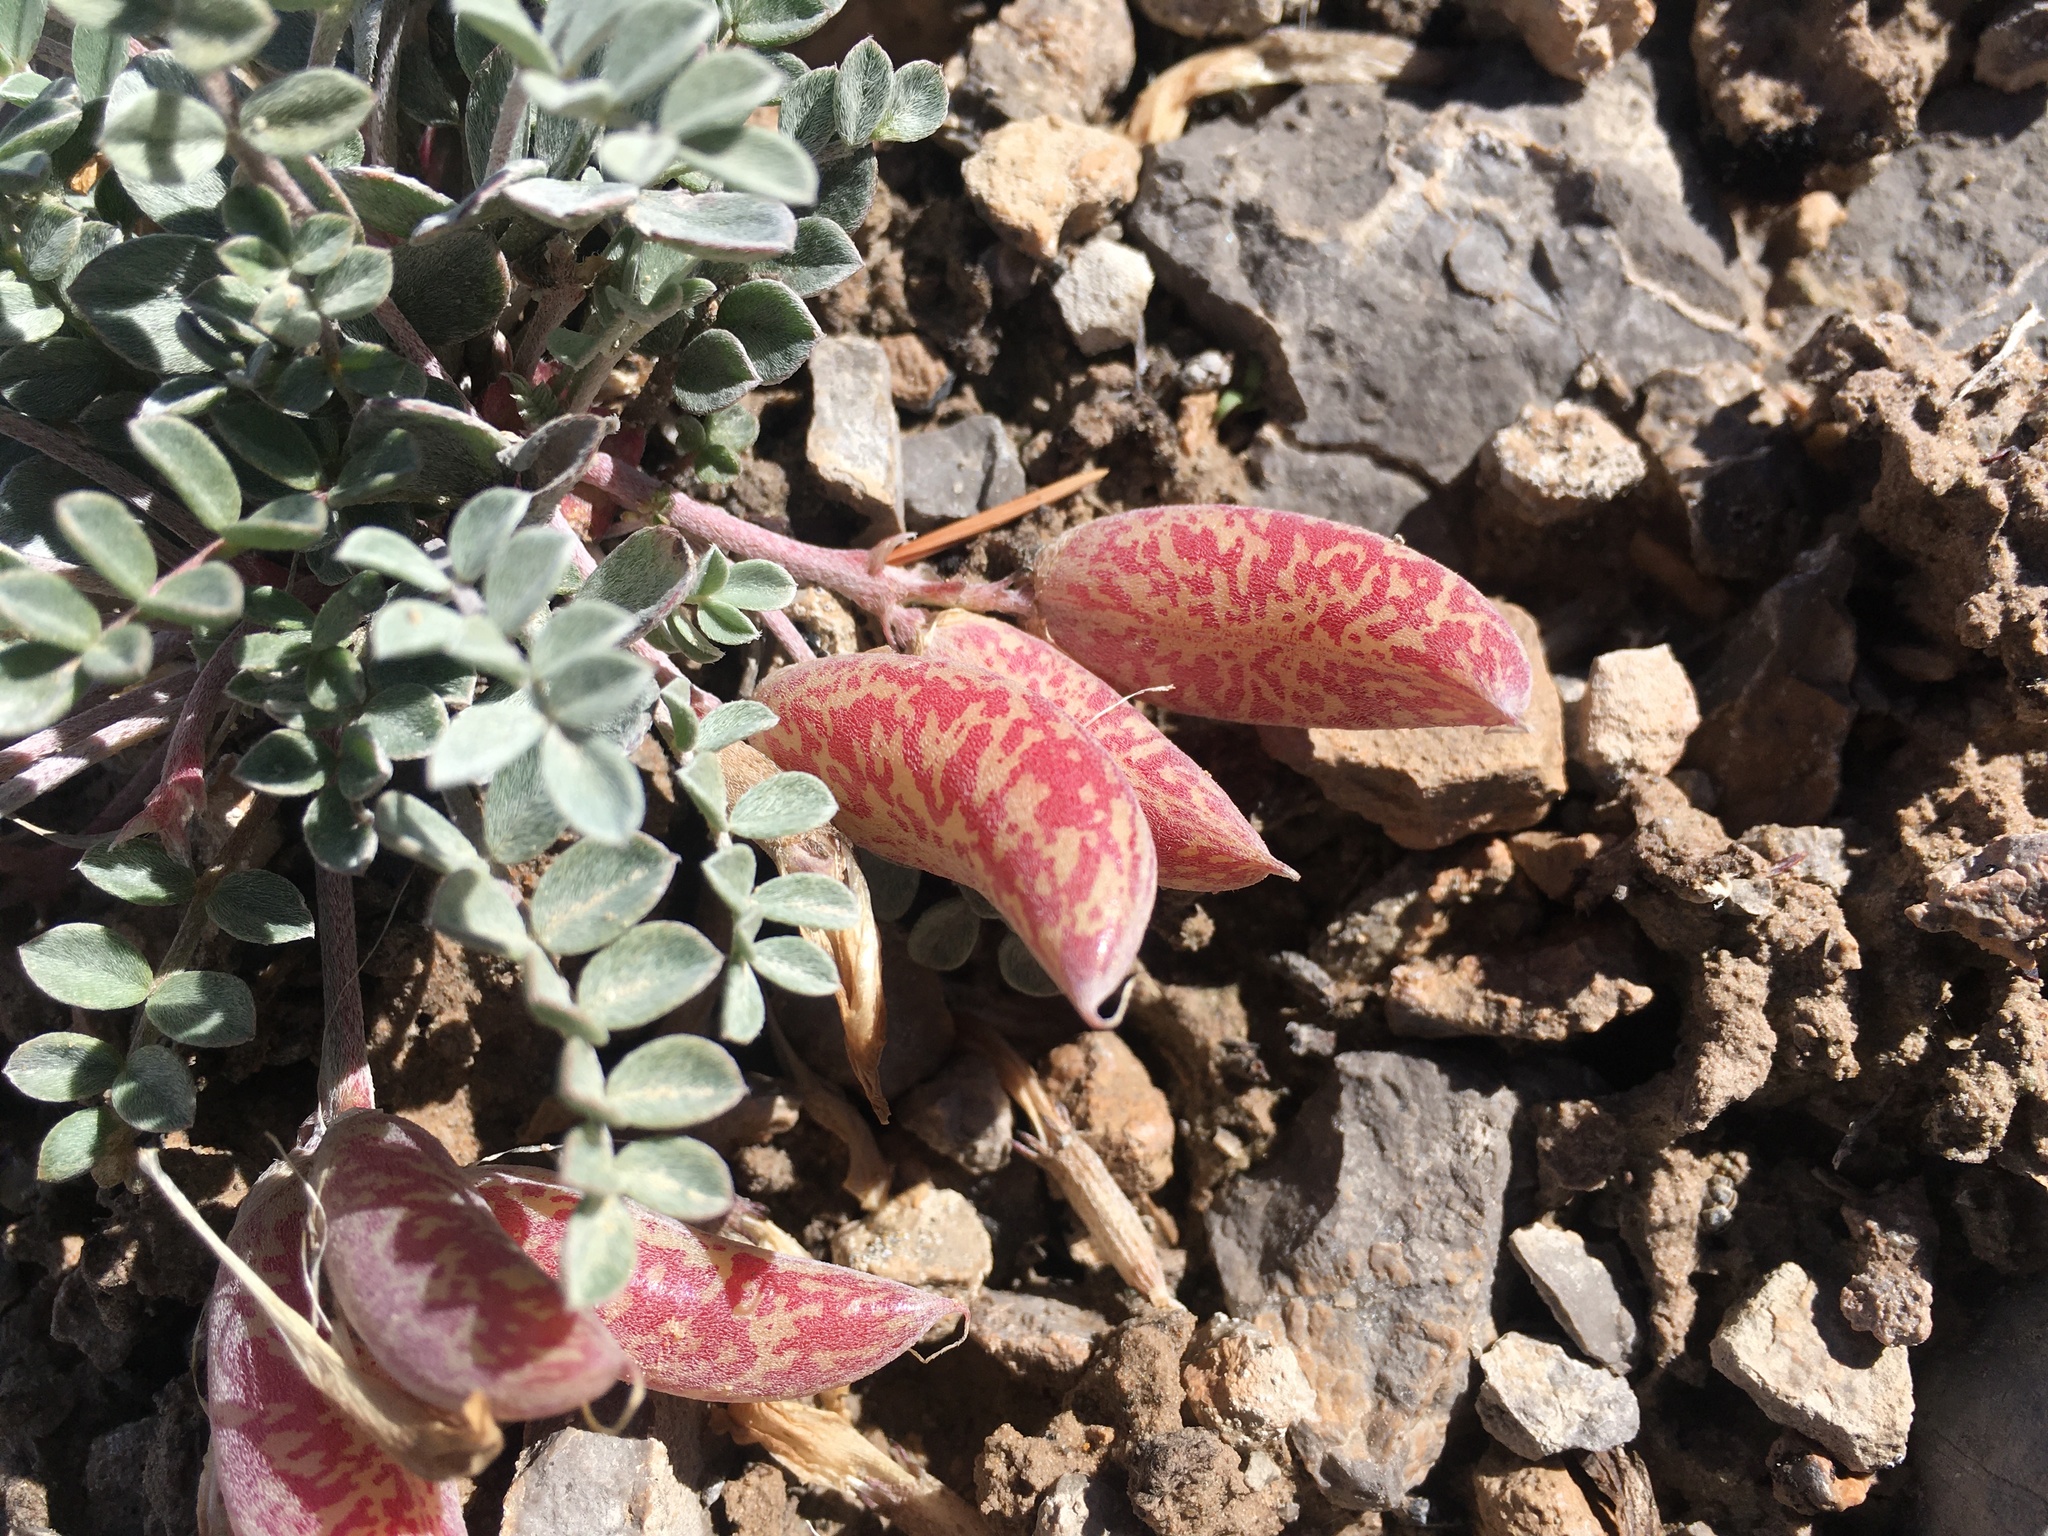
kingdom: Plantae
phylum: Tracheophyta
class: Magnoliopsida
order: Fabales
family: Fabaceae
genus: Astragalus
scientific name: Astragalus chamaeleuce
